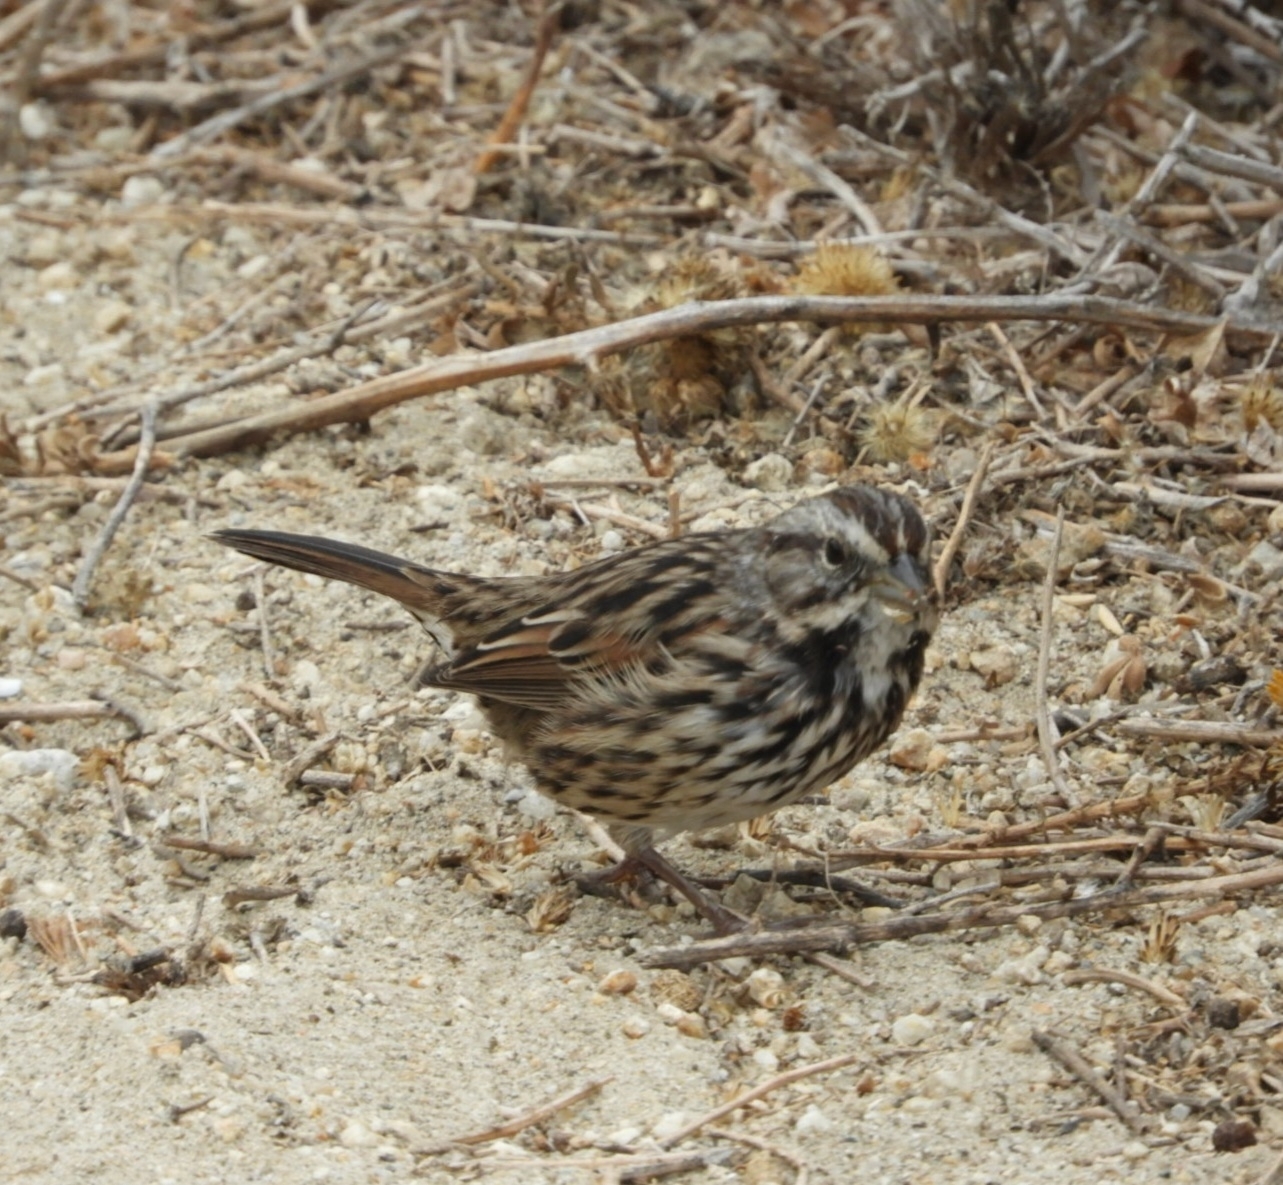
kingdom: Animalia
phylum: Chordata
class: Aves
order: Passeriformes
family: Passerellidae
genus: Melospiza
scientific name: Melospiza melodia
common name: Song sparrow
